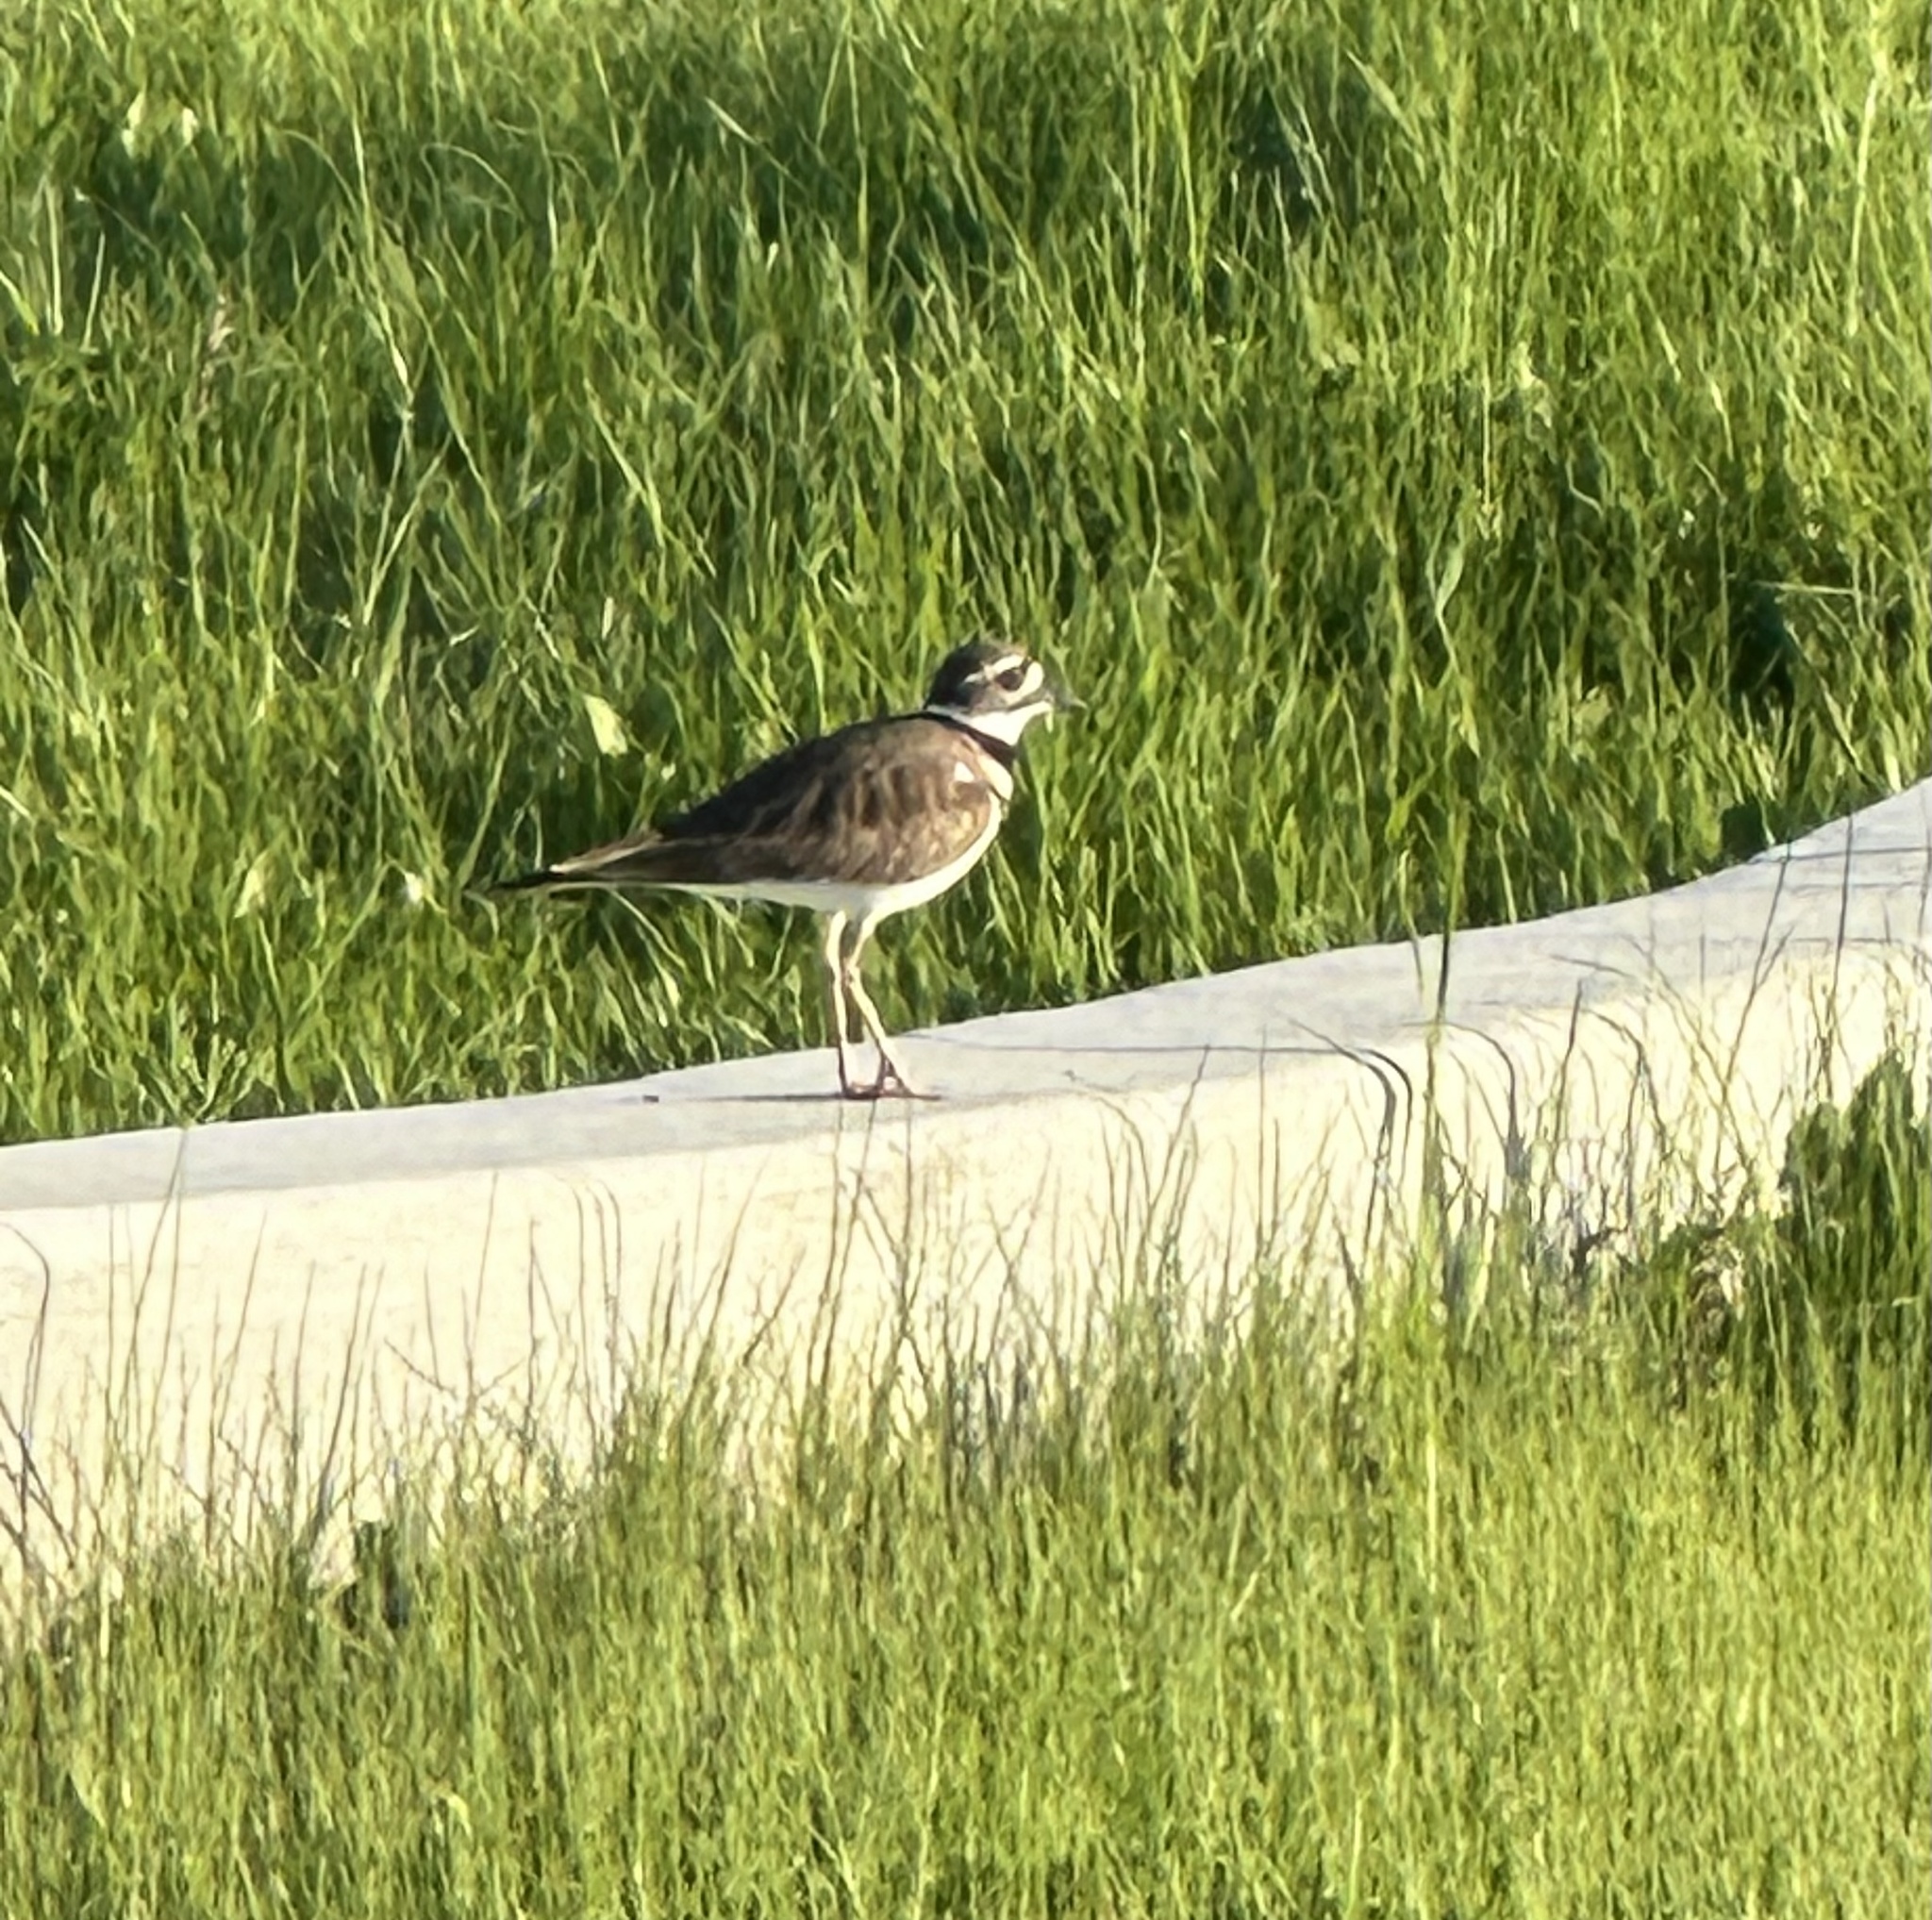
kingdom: Animalia
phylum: Chordata
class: Aves
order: Charadriiformes
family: Charadriidae
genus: Charadrius
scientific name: Charadrius vociferus
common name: Killdeer
